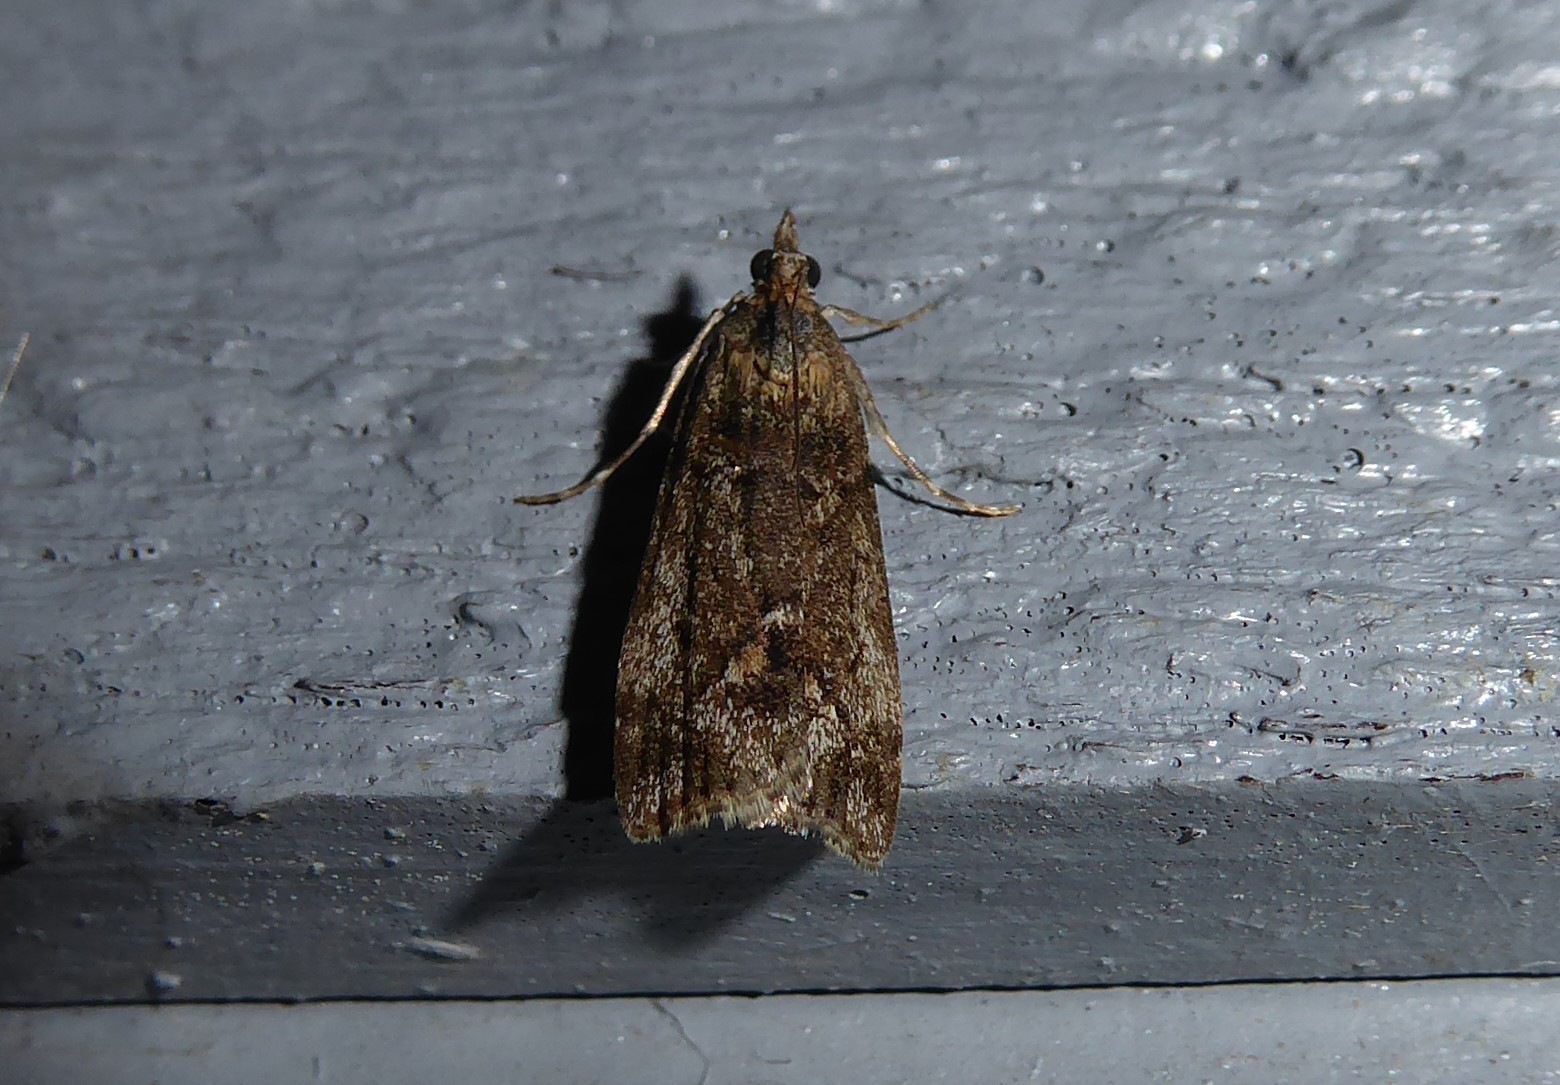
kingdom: Animalia
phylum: Arthropoda
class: Insecta
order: Lepidoptera
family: Crambidae
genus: Eudonia
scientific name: Eudonia submarginalis
